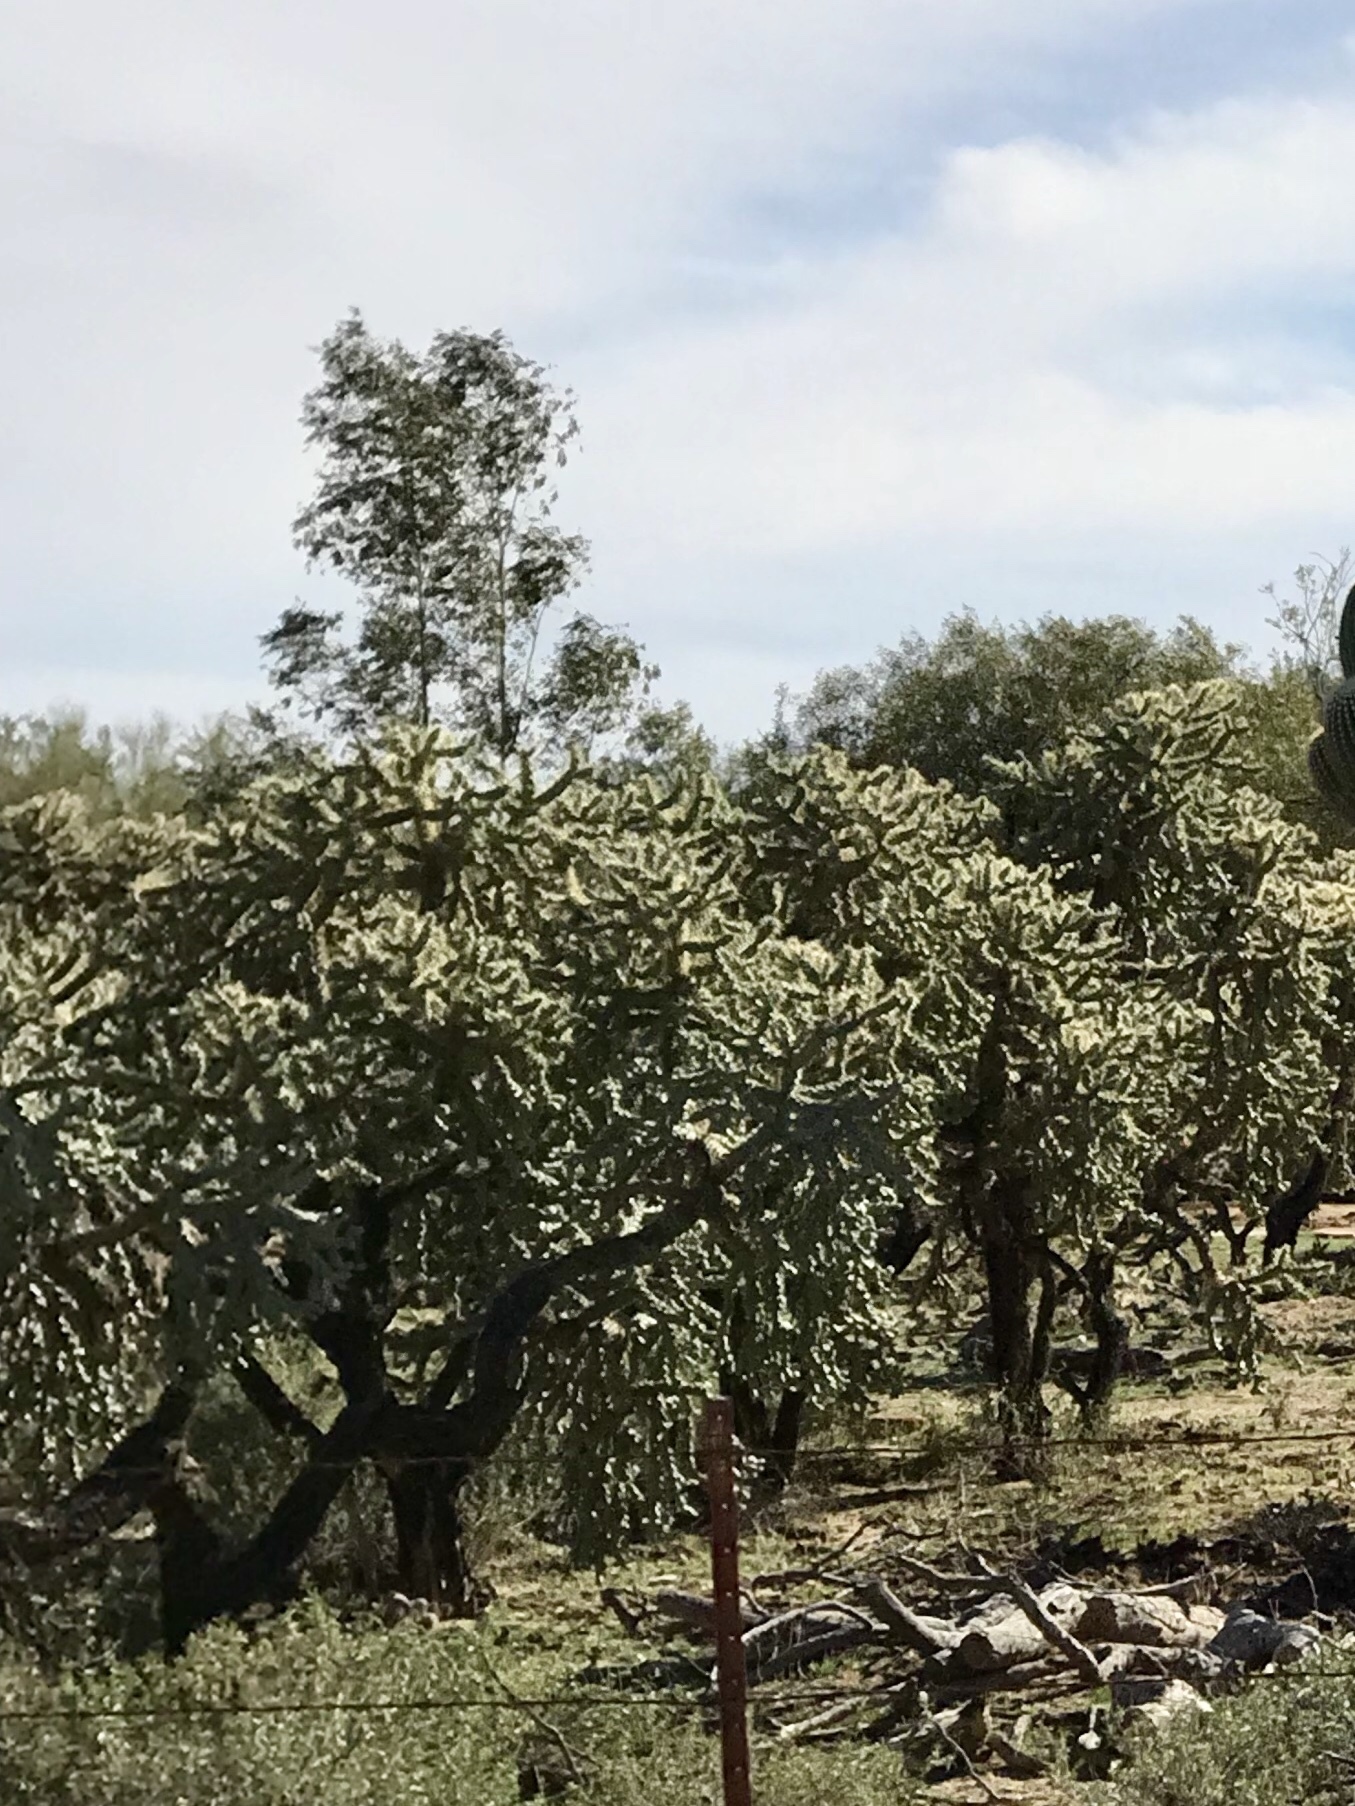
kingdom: Plantae
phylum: Tracheophyta
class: Magnoliopsida
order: Caryophyllales
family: Cactaceae
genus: Cylindropuntia
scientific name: Cylindropuntia fulgida
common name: Jumping cholla
